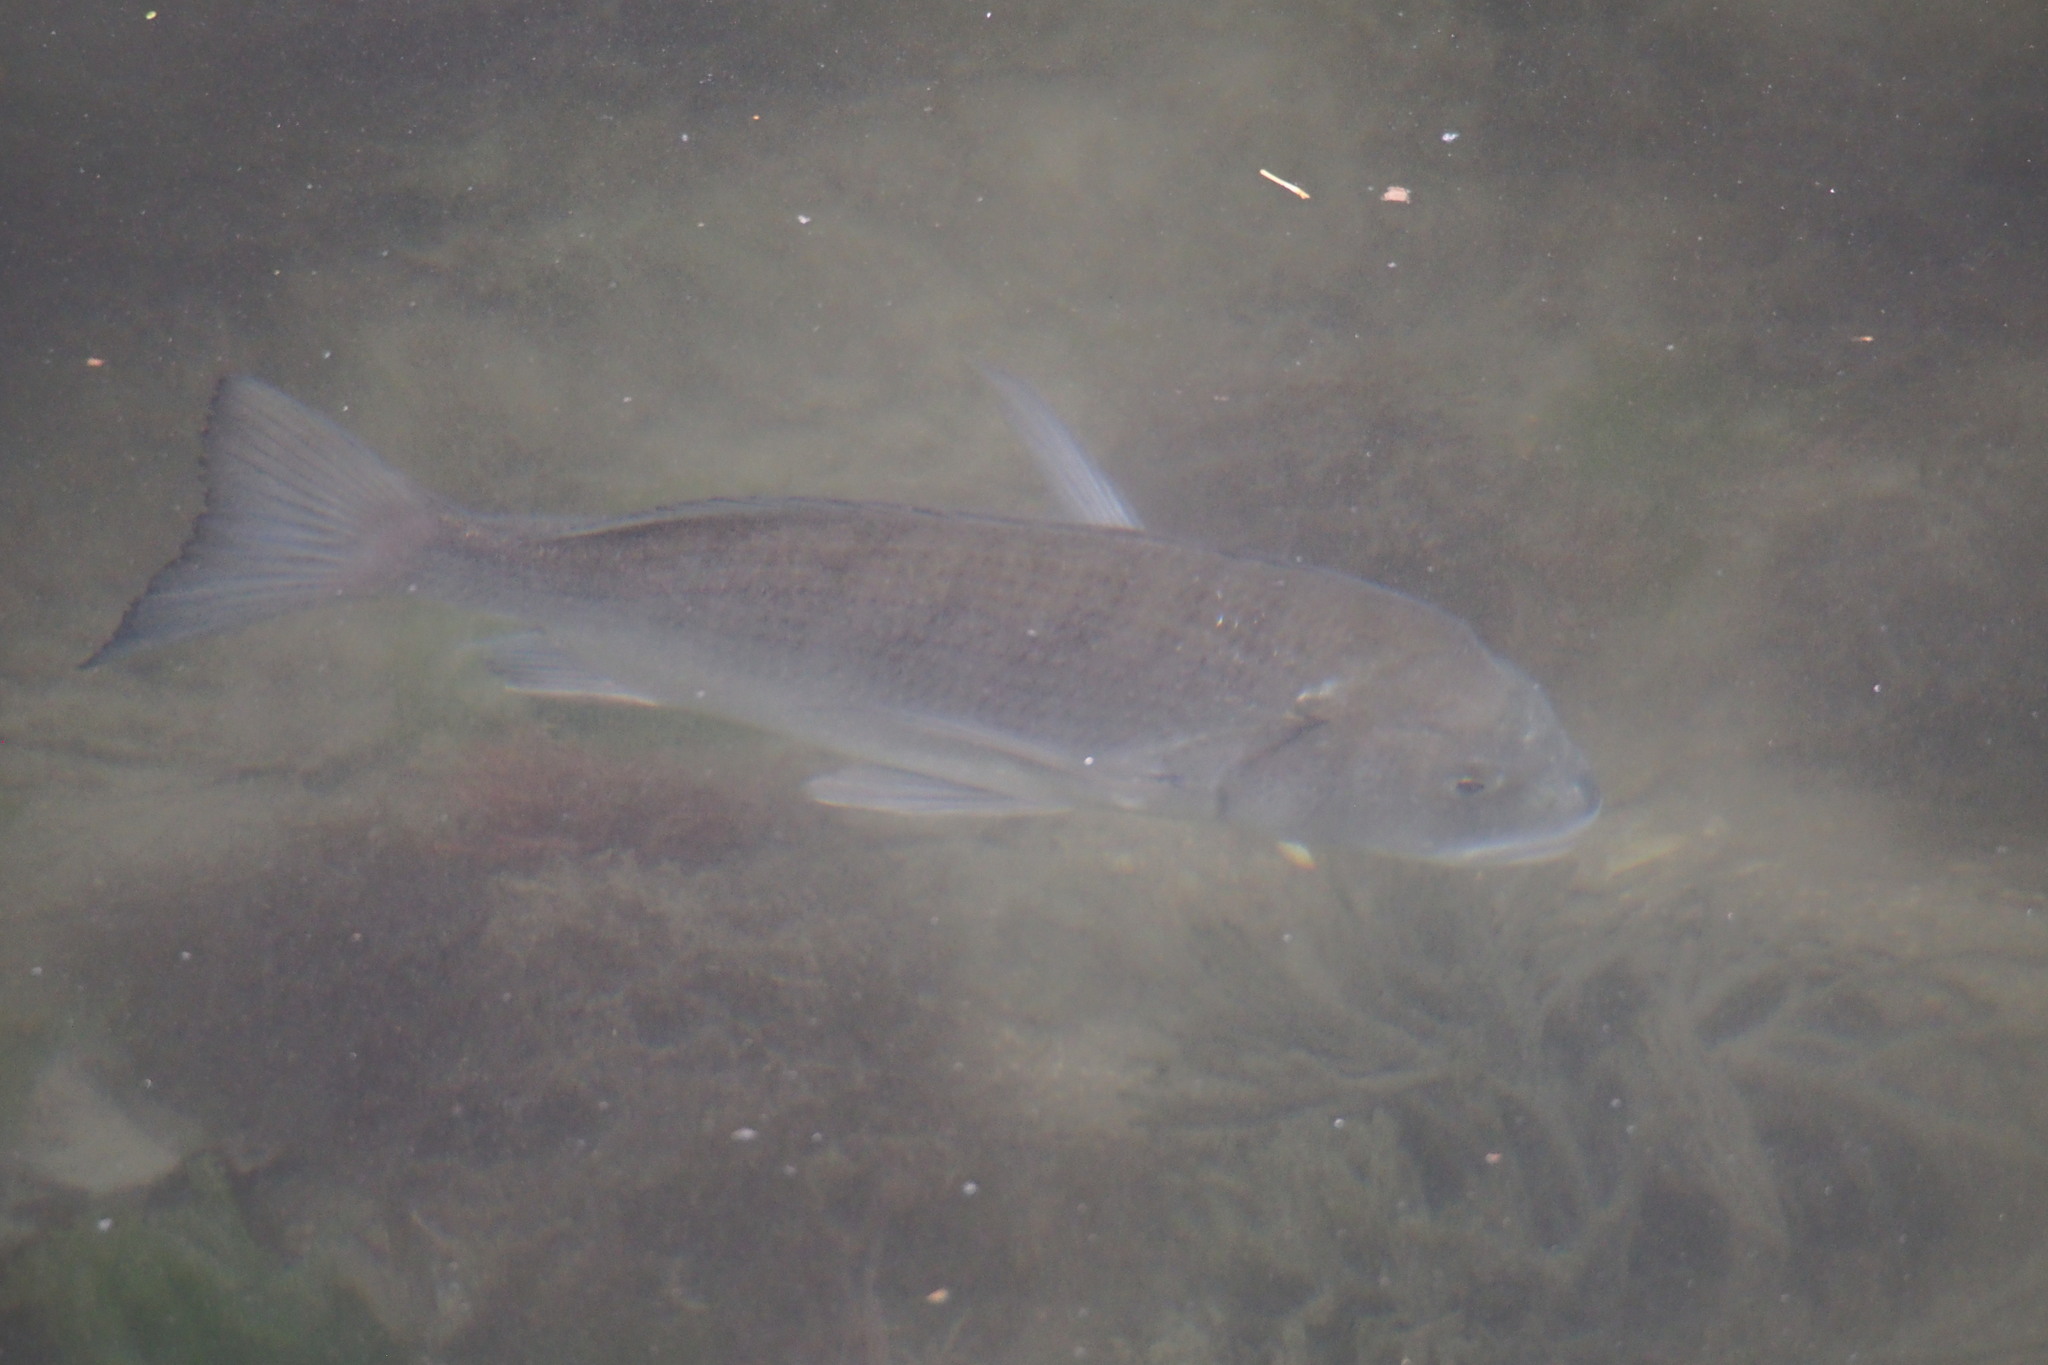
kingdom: Animalia
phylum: Chordata
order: Perciformes
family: Sparidae
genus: Acanthopagrus
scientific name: Acanthopagrus schlegelii
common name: Blackhead seabream
